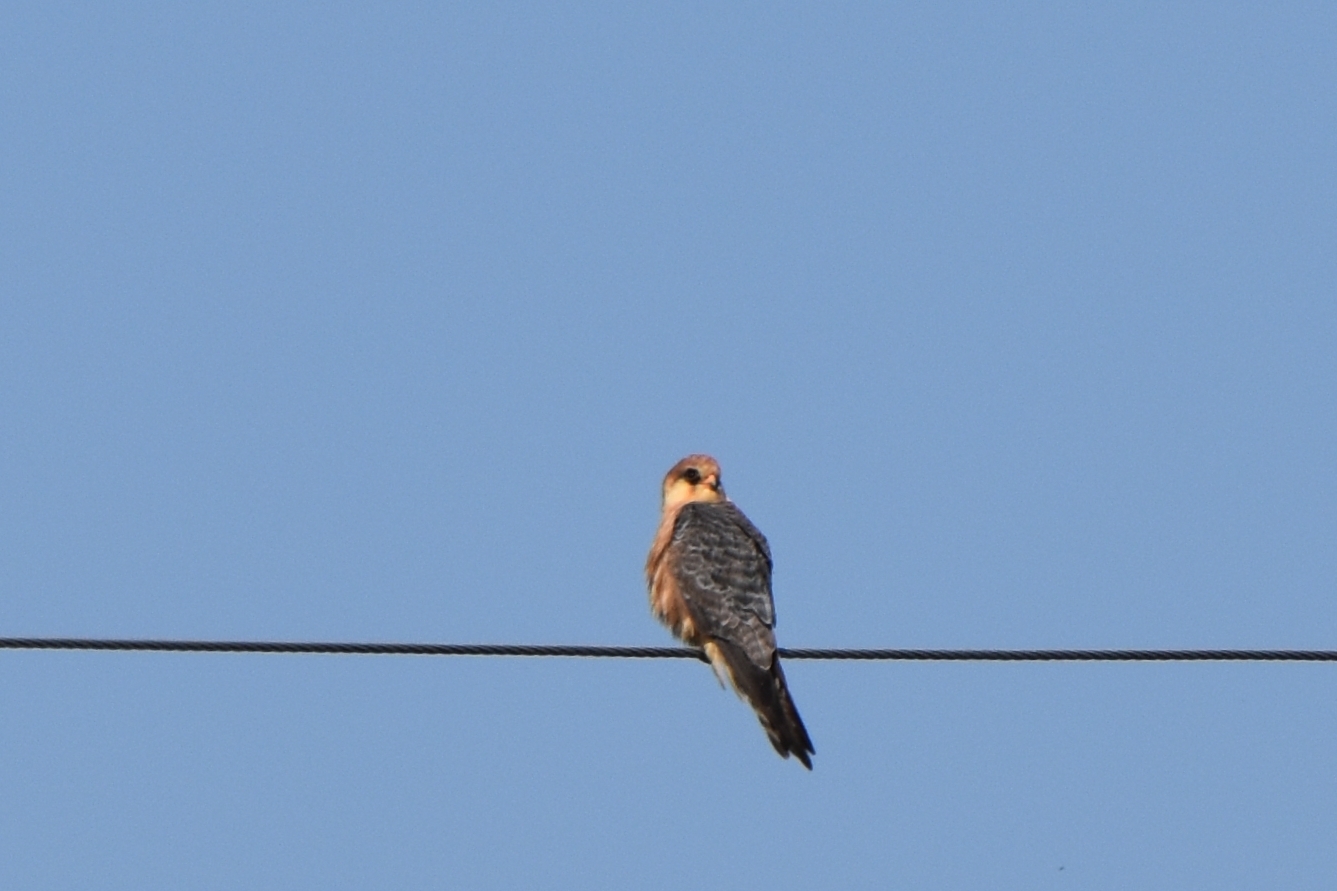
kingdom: Animalia
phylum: Chordata
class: Aves
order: Falconiformes
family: Falconidae
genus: Falco
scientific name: Falco vespertinus
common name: Red-footed falcon
